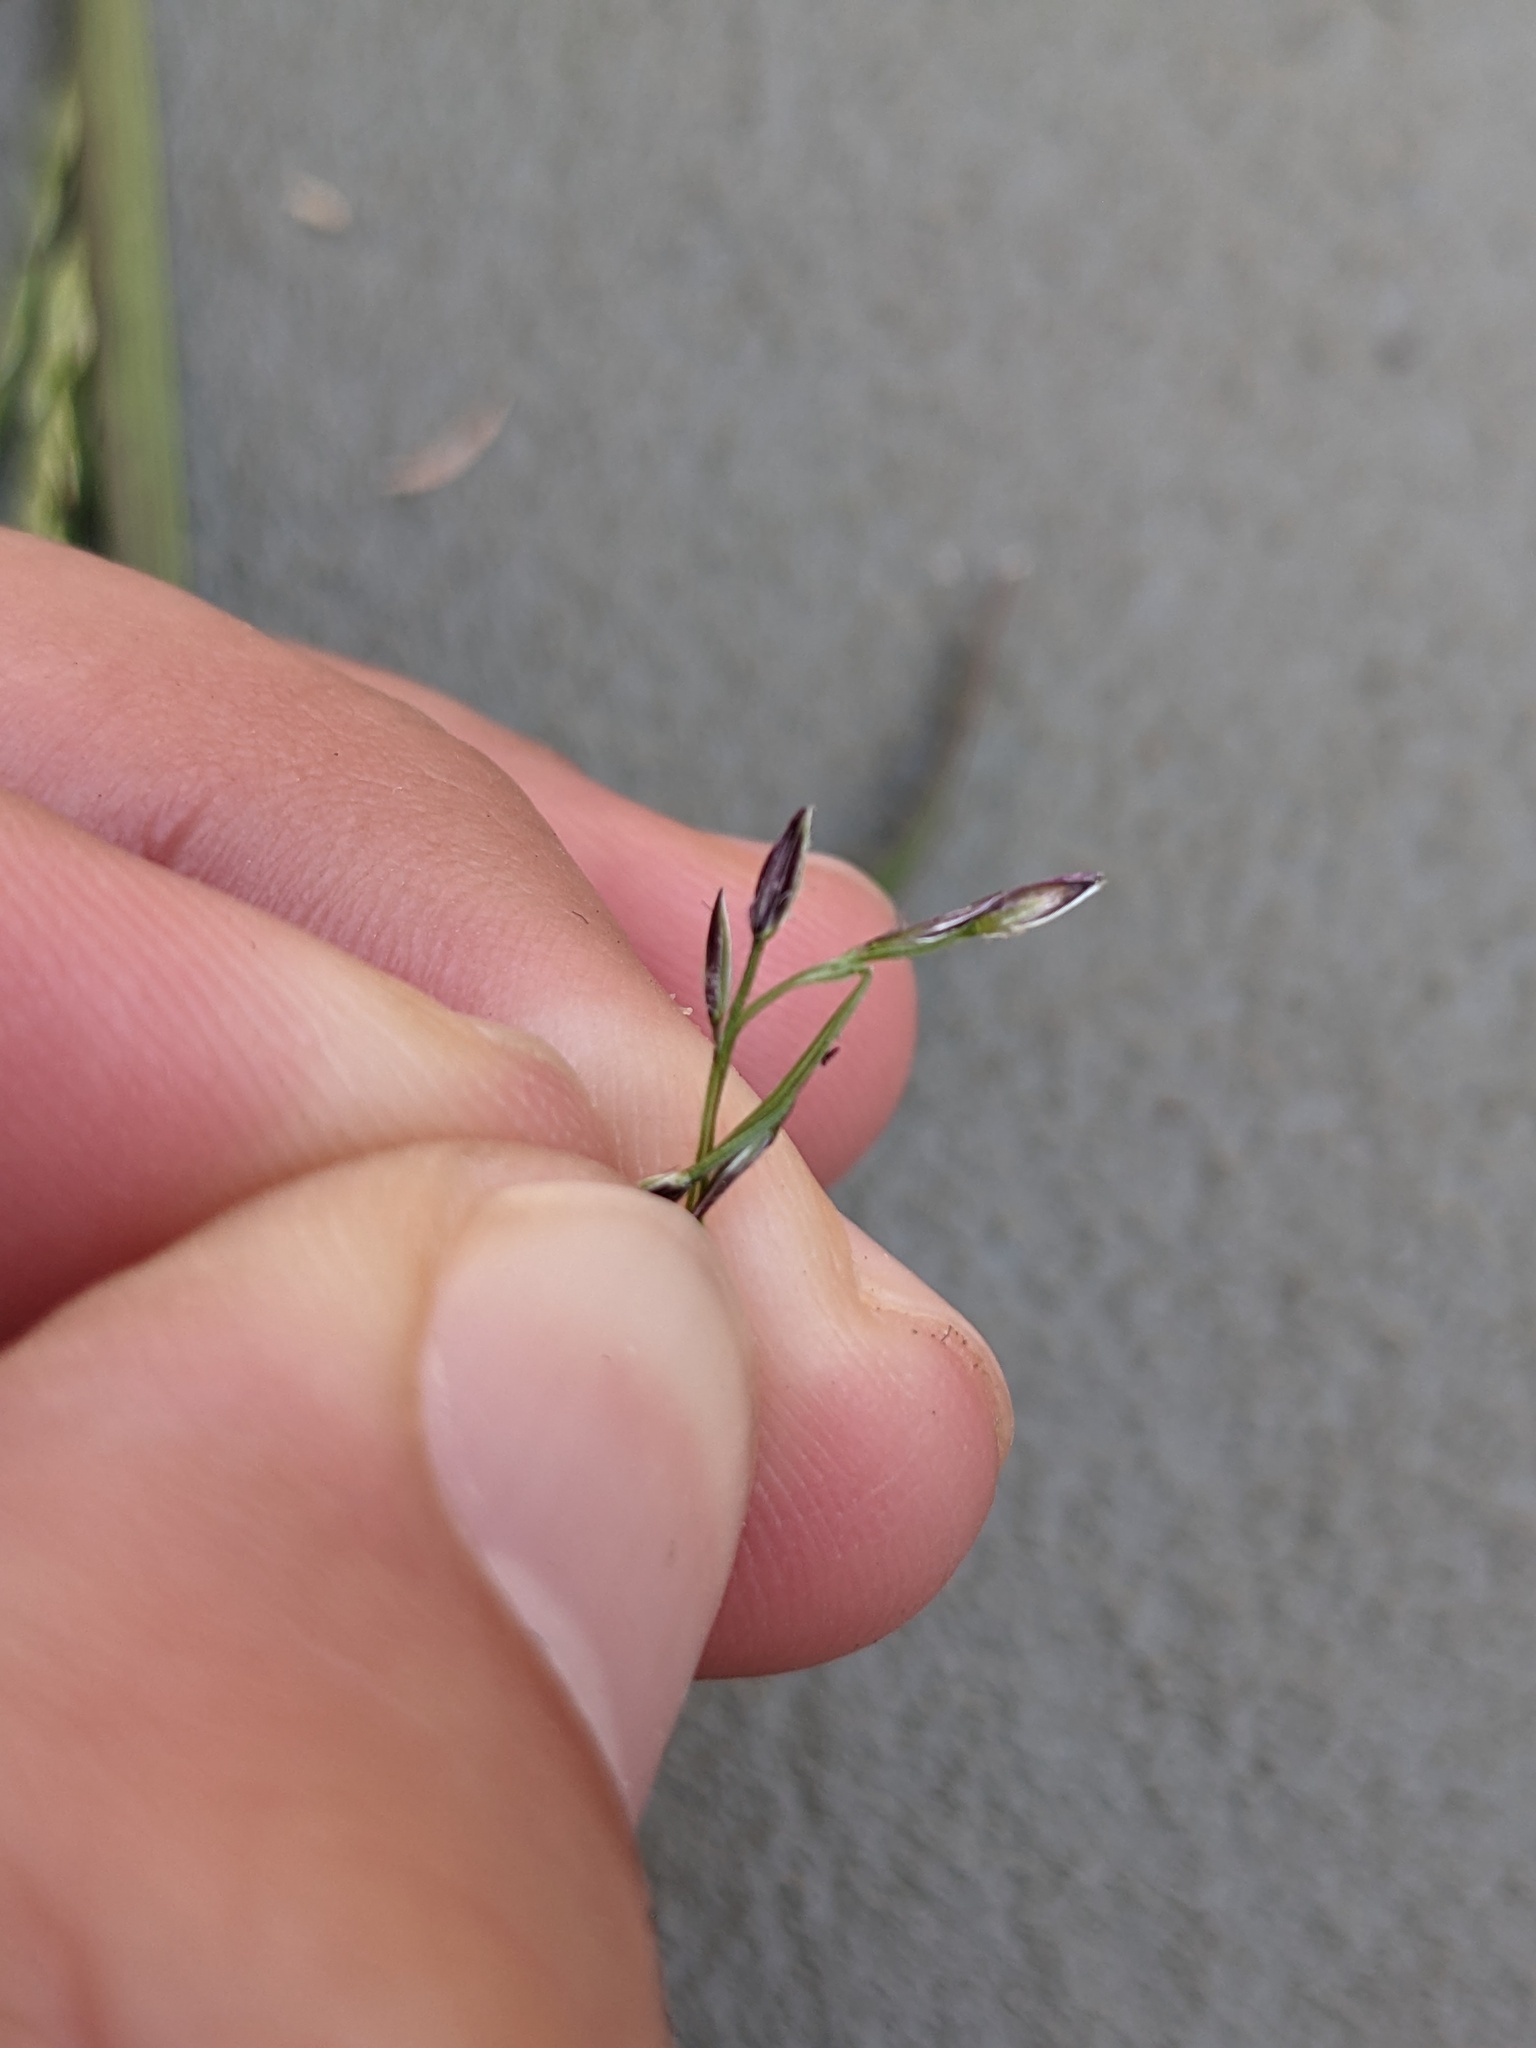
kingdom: Plantae
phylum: Tracheophyta
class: Liliopsida
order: Poales
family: Poaceae
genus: Digitaria
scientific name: Digitaria ciliaris
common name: Tropical finger-grass
